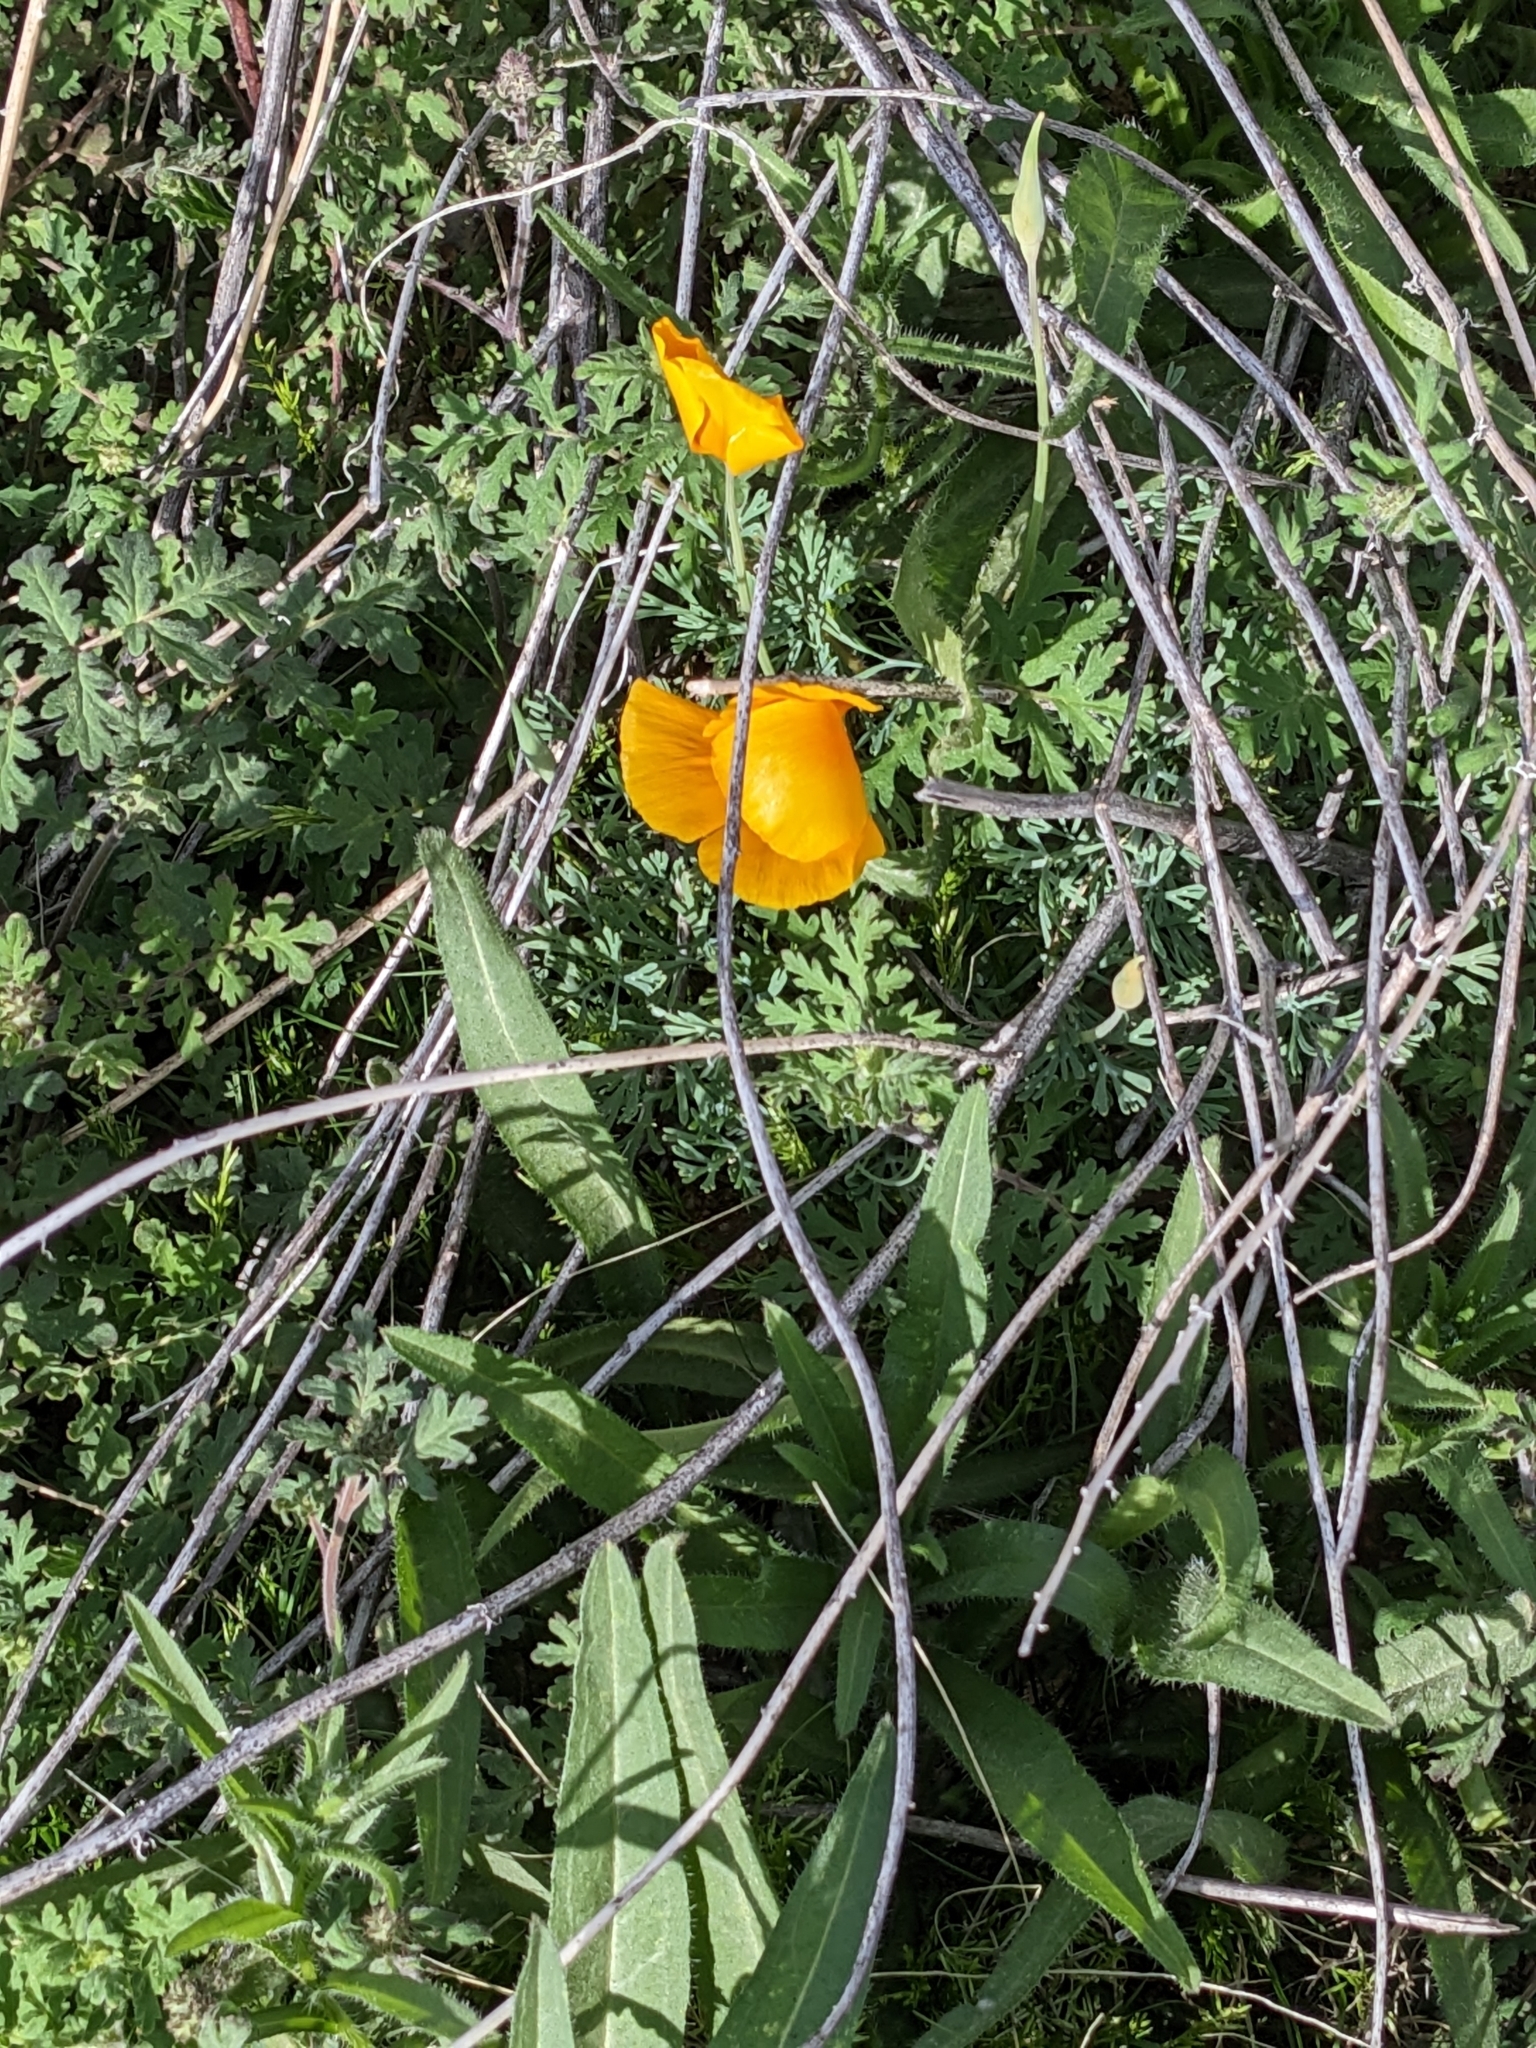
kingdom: Plantae
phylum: Tracheophyta
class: Magnoliopsida
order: Ranunculales
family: Papaveraceae
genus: Eschscholzia
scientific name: Eschscholzia californica
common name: California poppy
